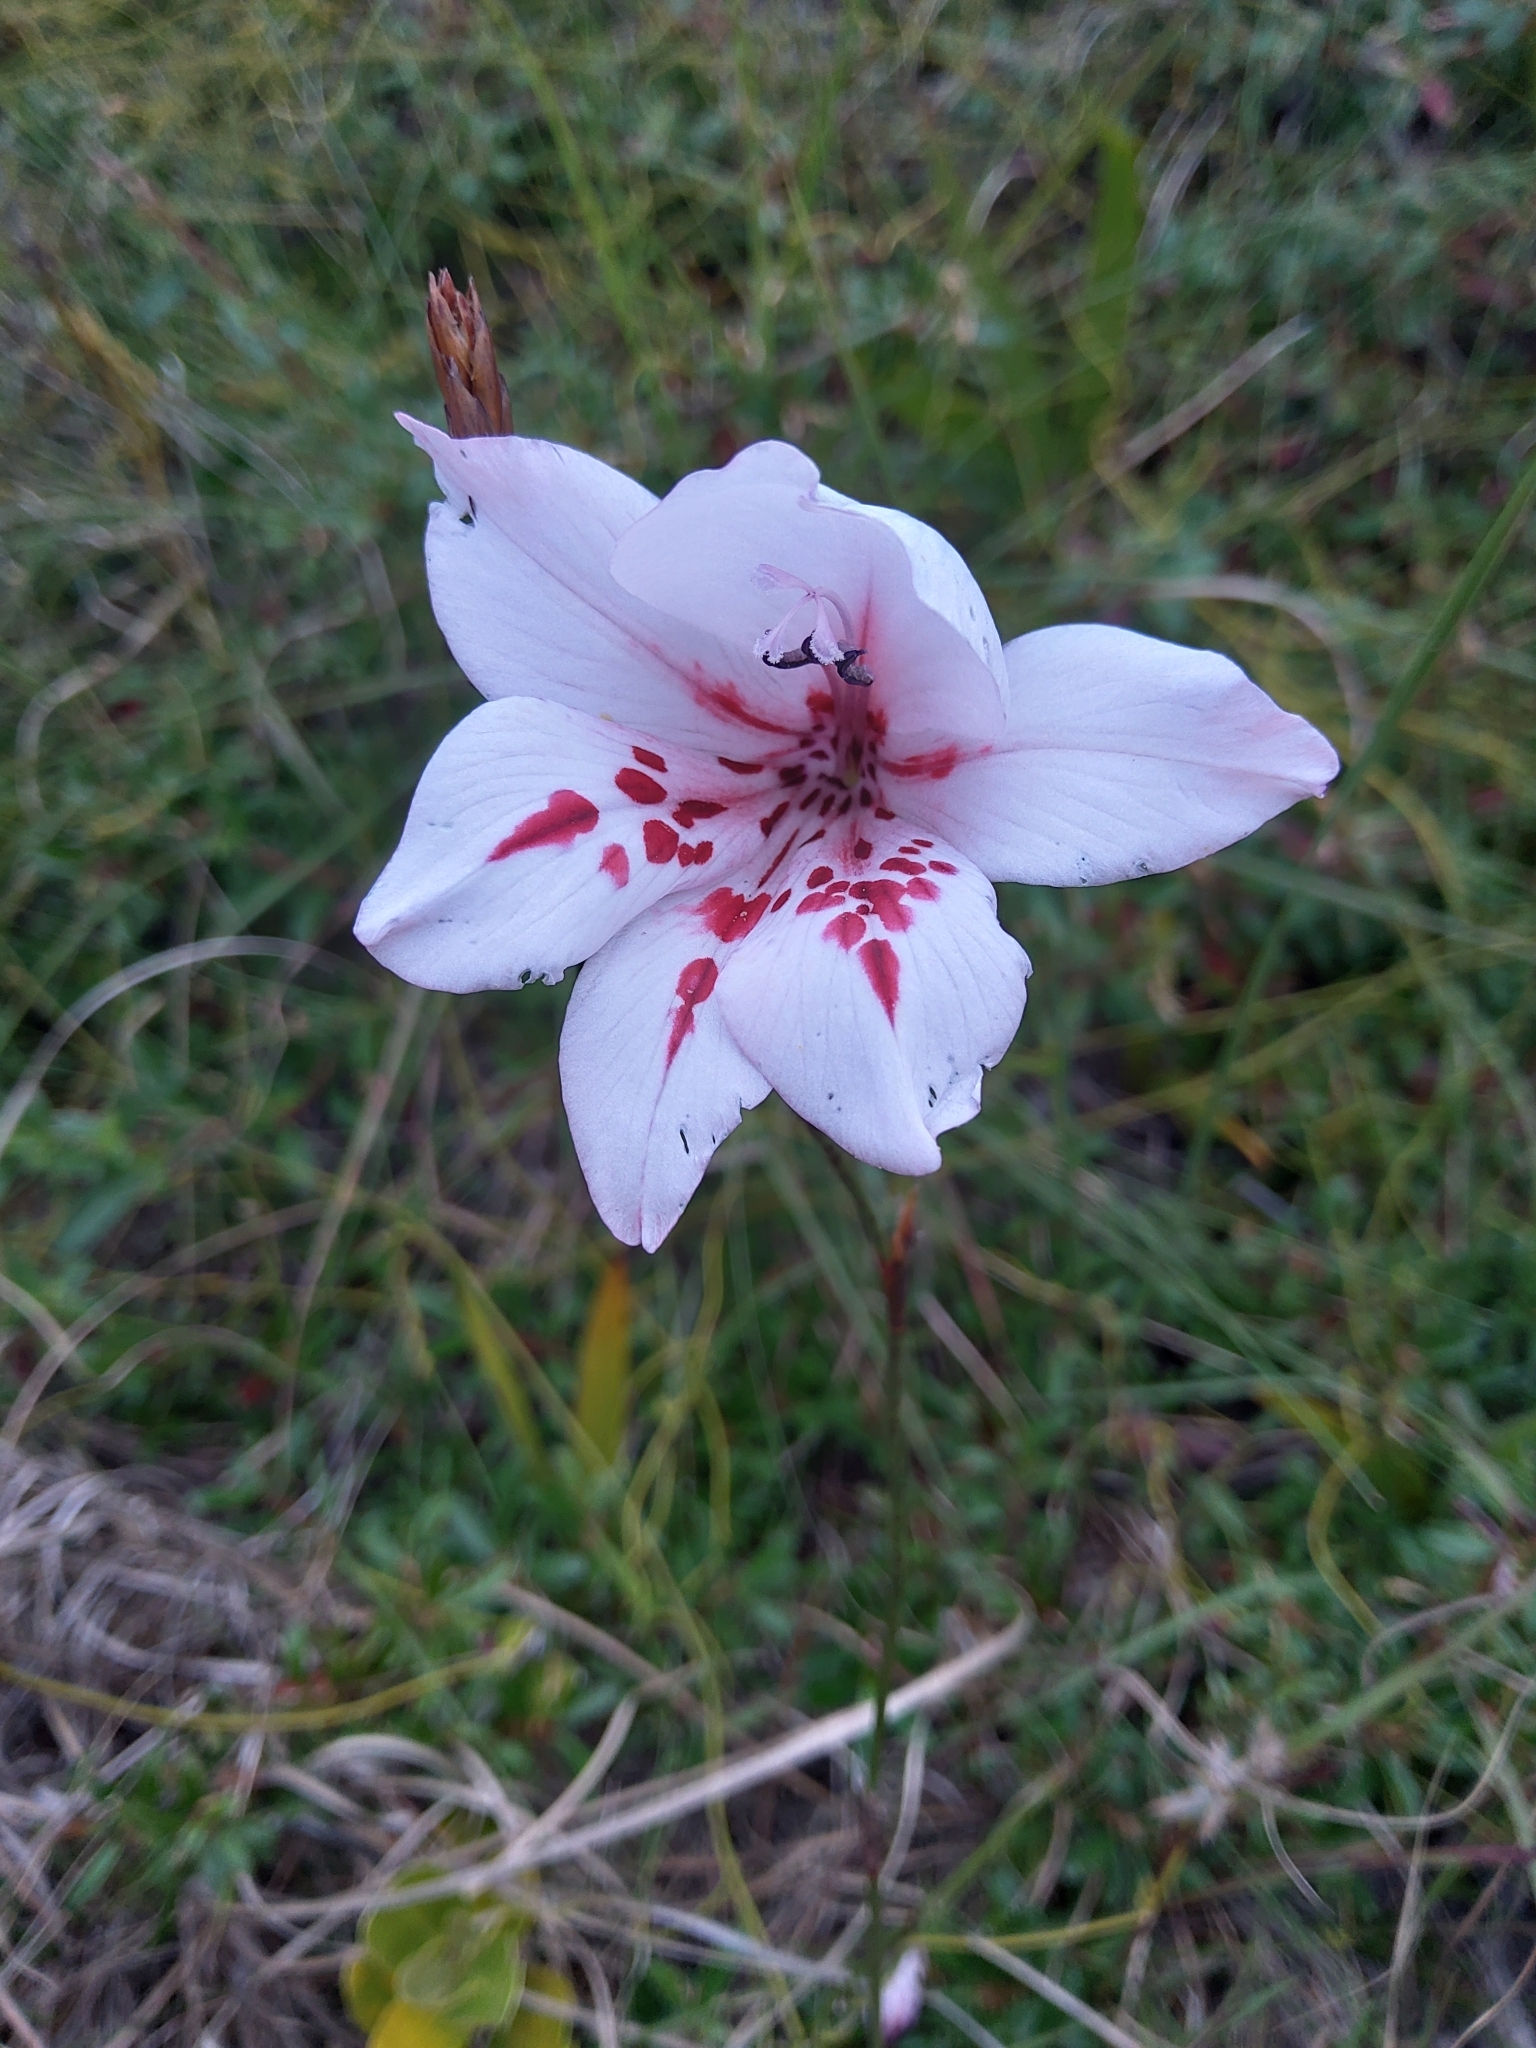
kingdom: Plantae
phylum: Tracheophyta
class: Liliopsida
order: Asparagales
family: Iridaceae
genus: Gladiolus
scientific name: Gladiolus variegatus
